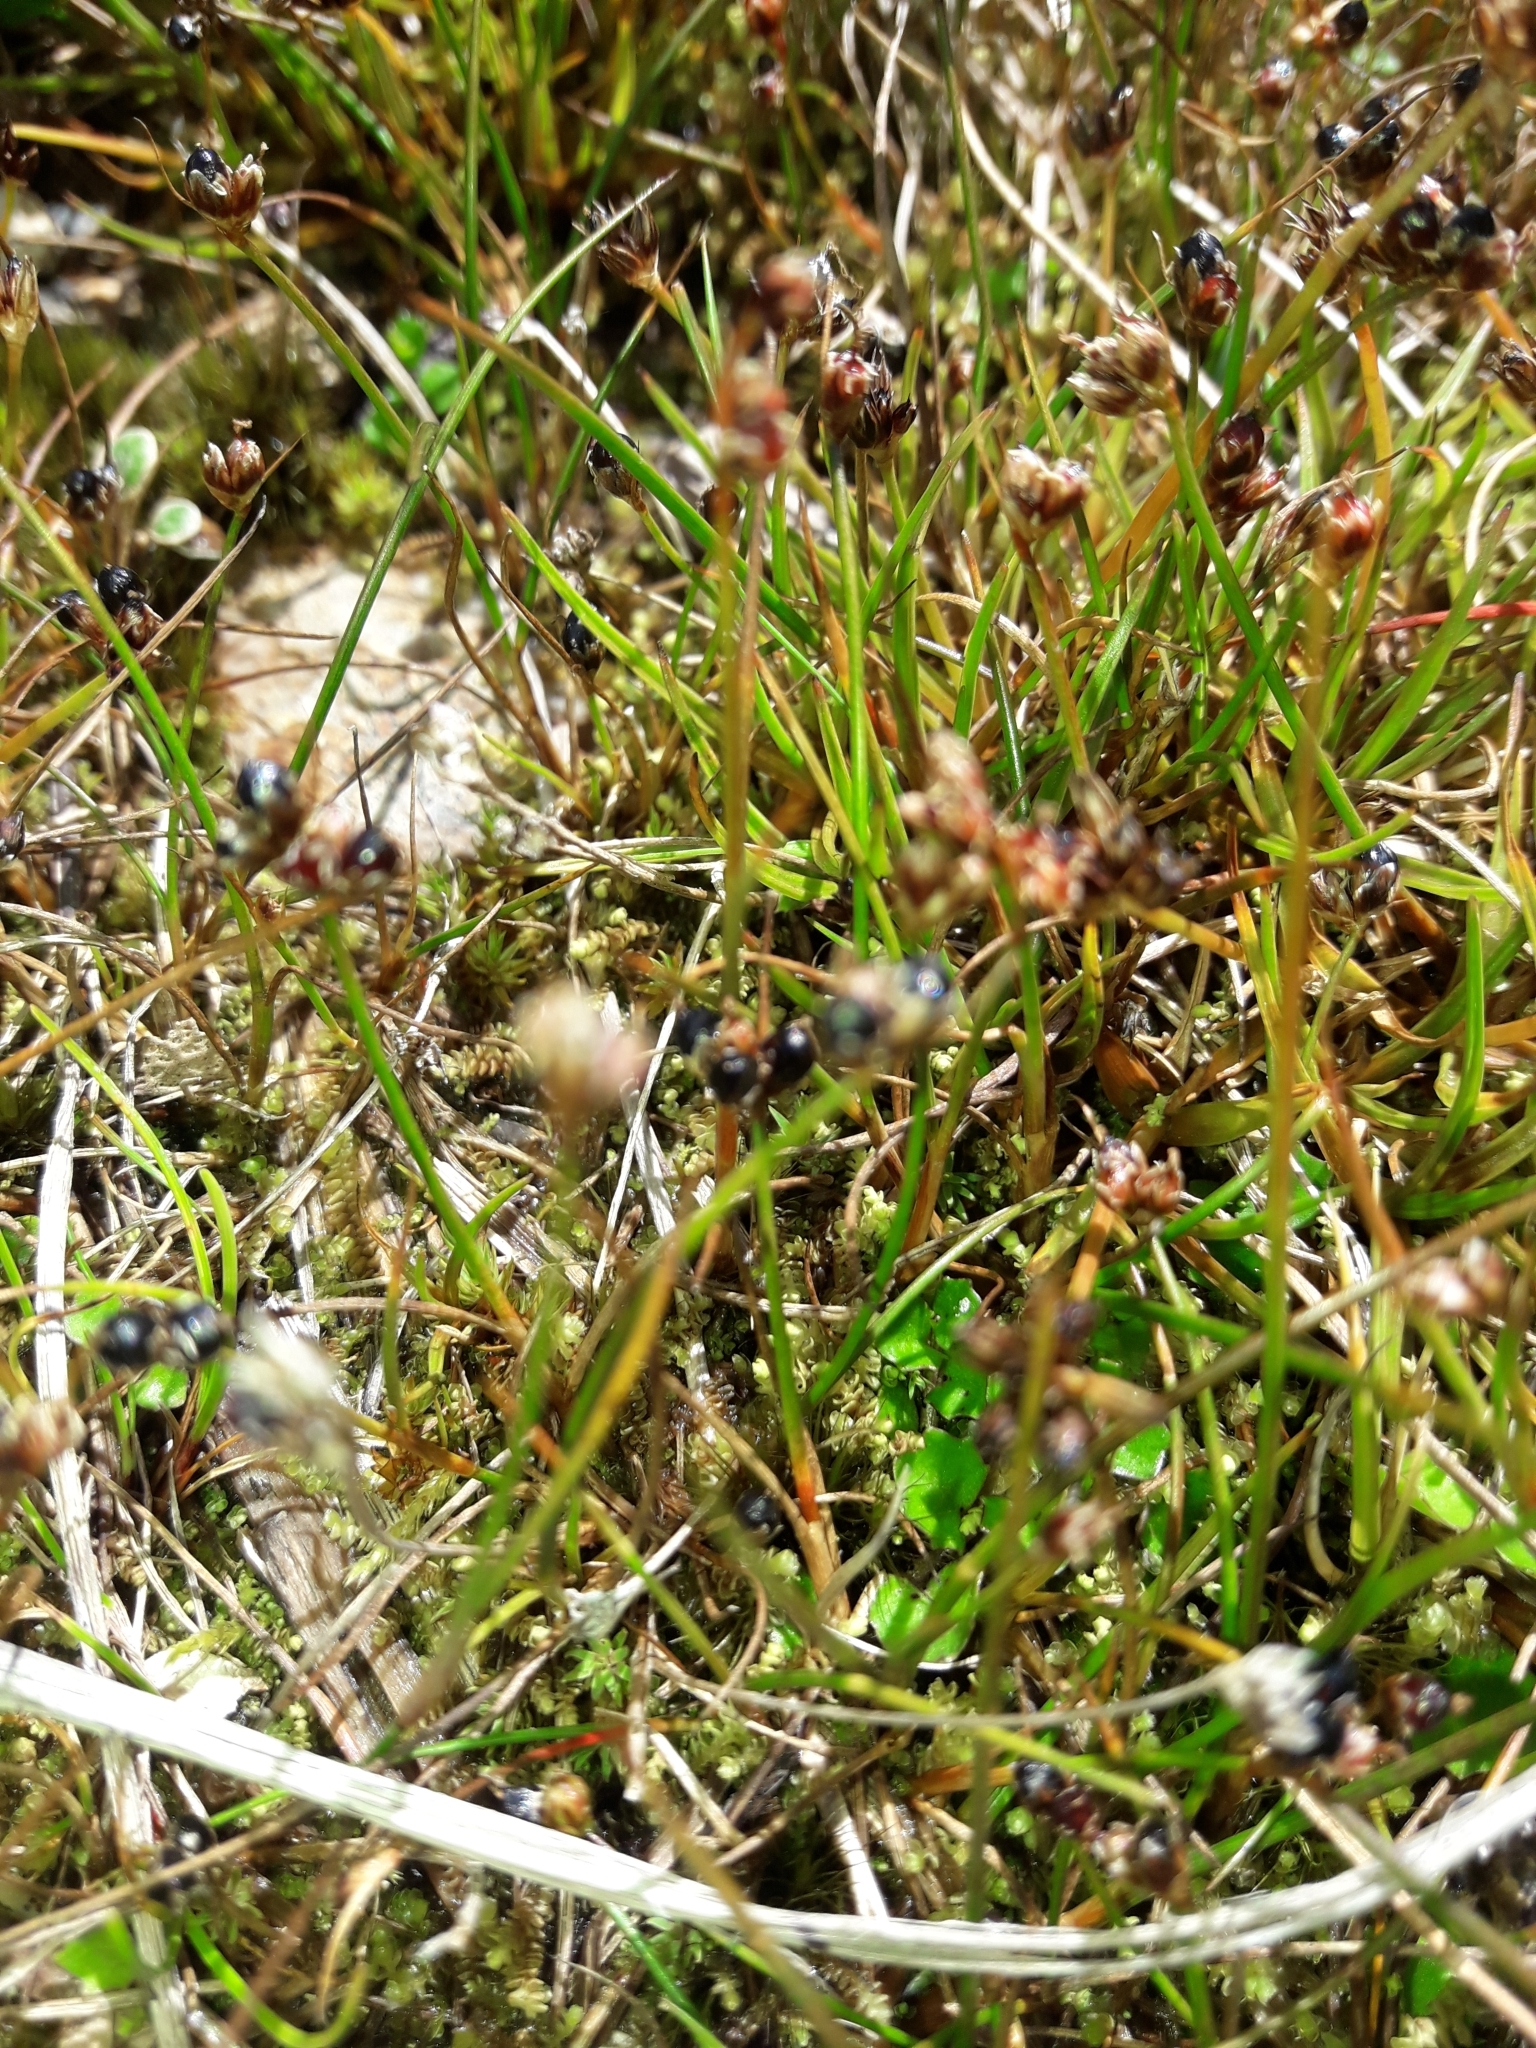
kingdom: Plantae
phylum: Tracheophyta
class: Liliopsida
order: Poales
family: Juncaceae
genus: Juncus
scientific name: Juncus antarcticus
